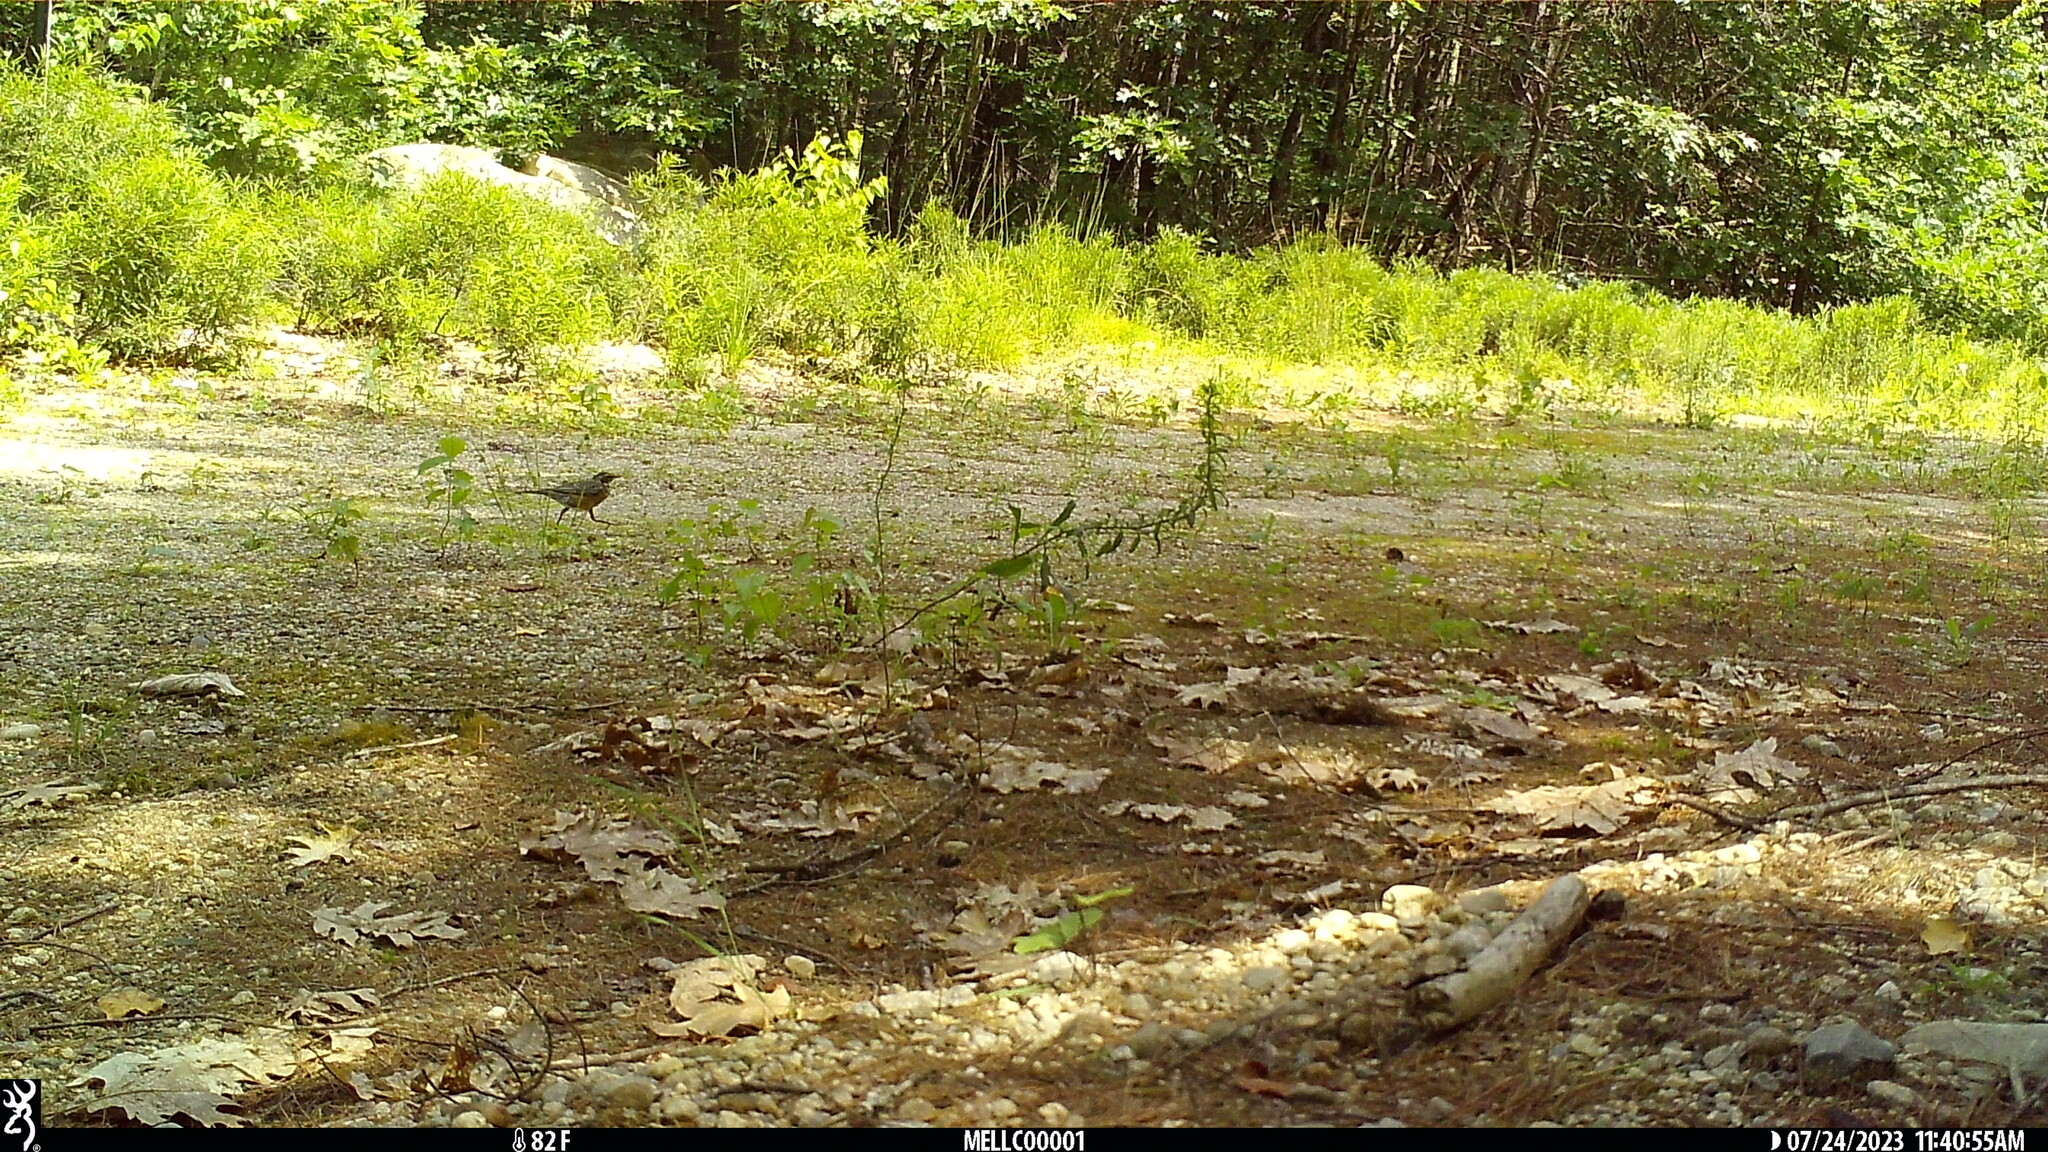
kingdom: Animalia
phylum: Chordata
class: Aves
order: Passeriformes
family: Turdidae
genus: Turdus
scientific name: Turdus migratorius
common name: American robin
